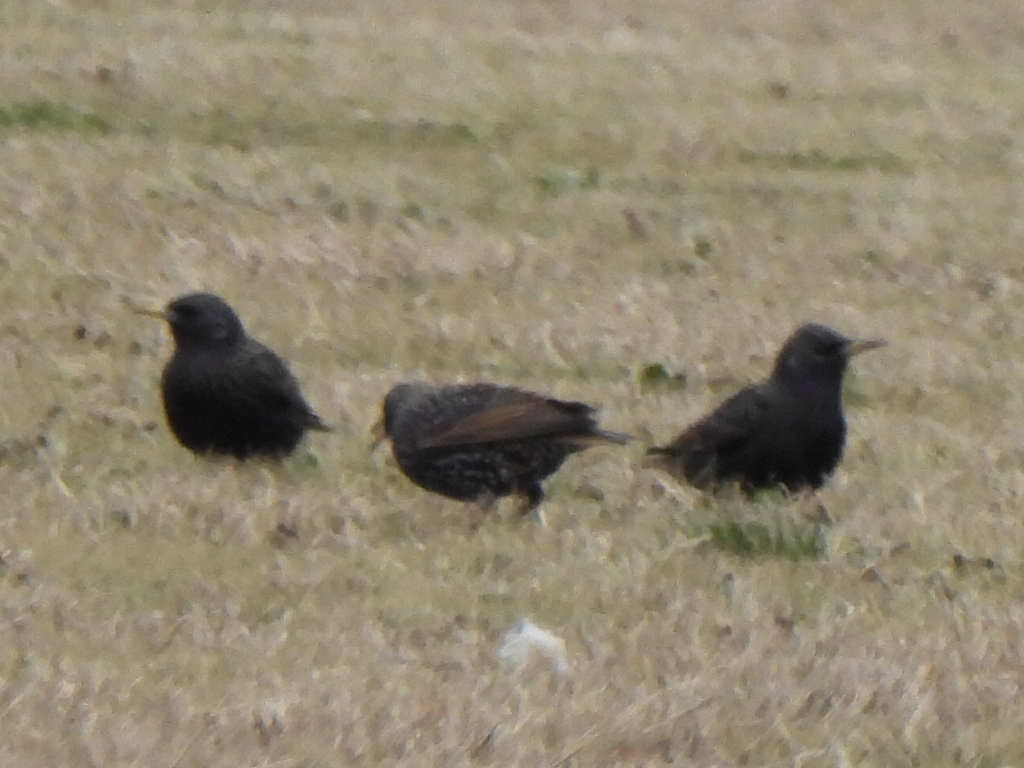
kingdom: Animalia
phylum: Chordata
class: Aves
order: Passeriformes
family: Sturnidae
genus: Sturnus
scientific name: Sturnus vulgaris
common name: Common starling
